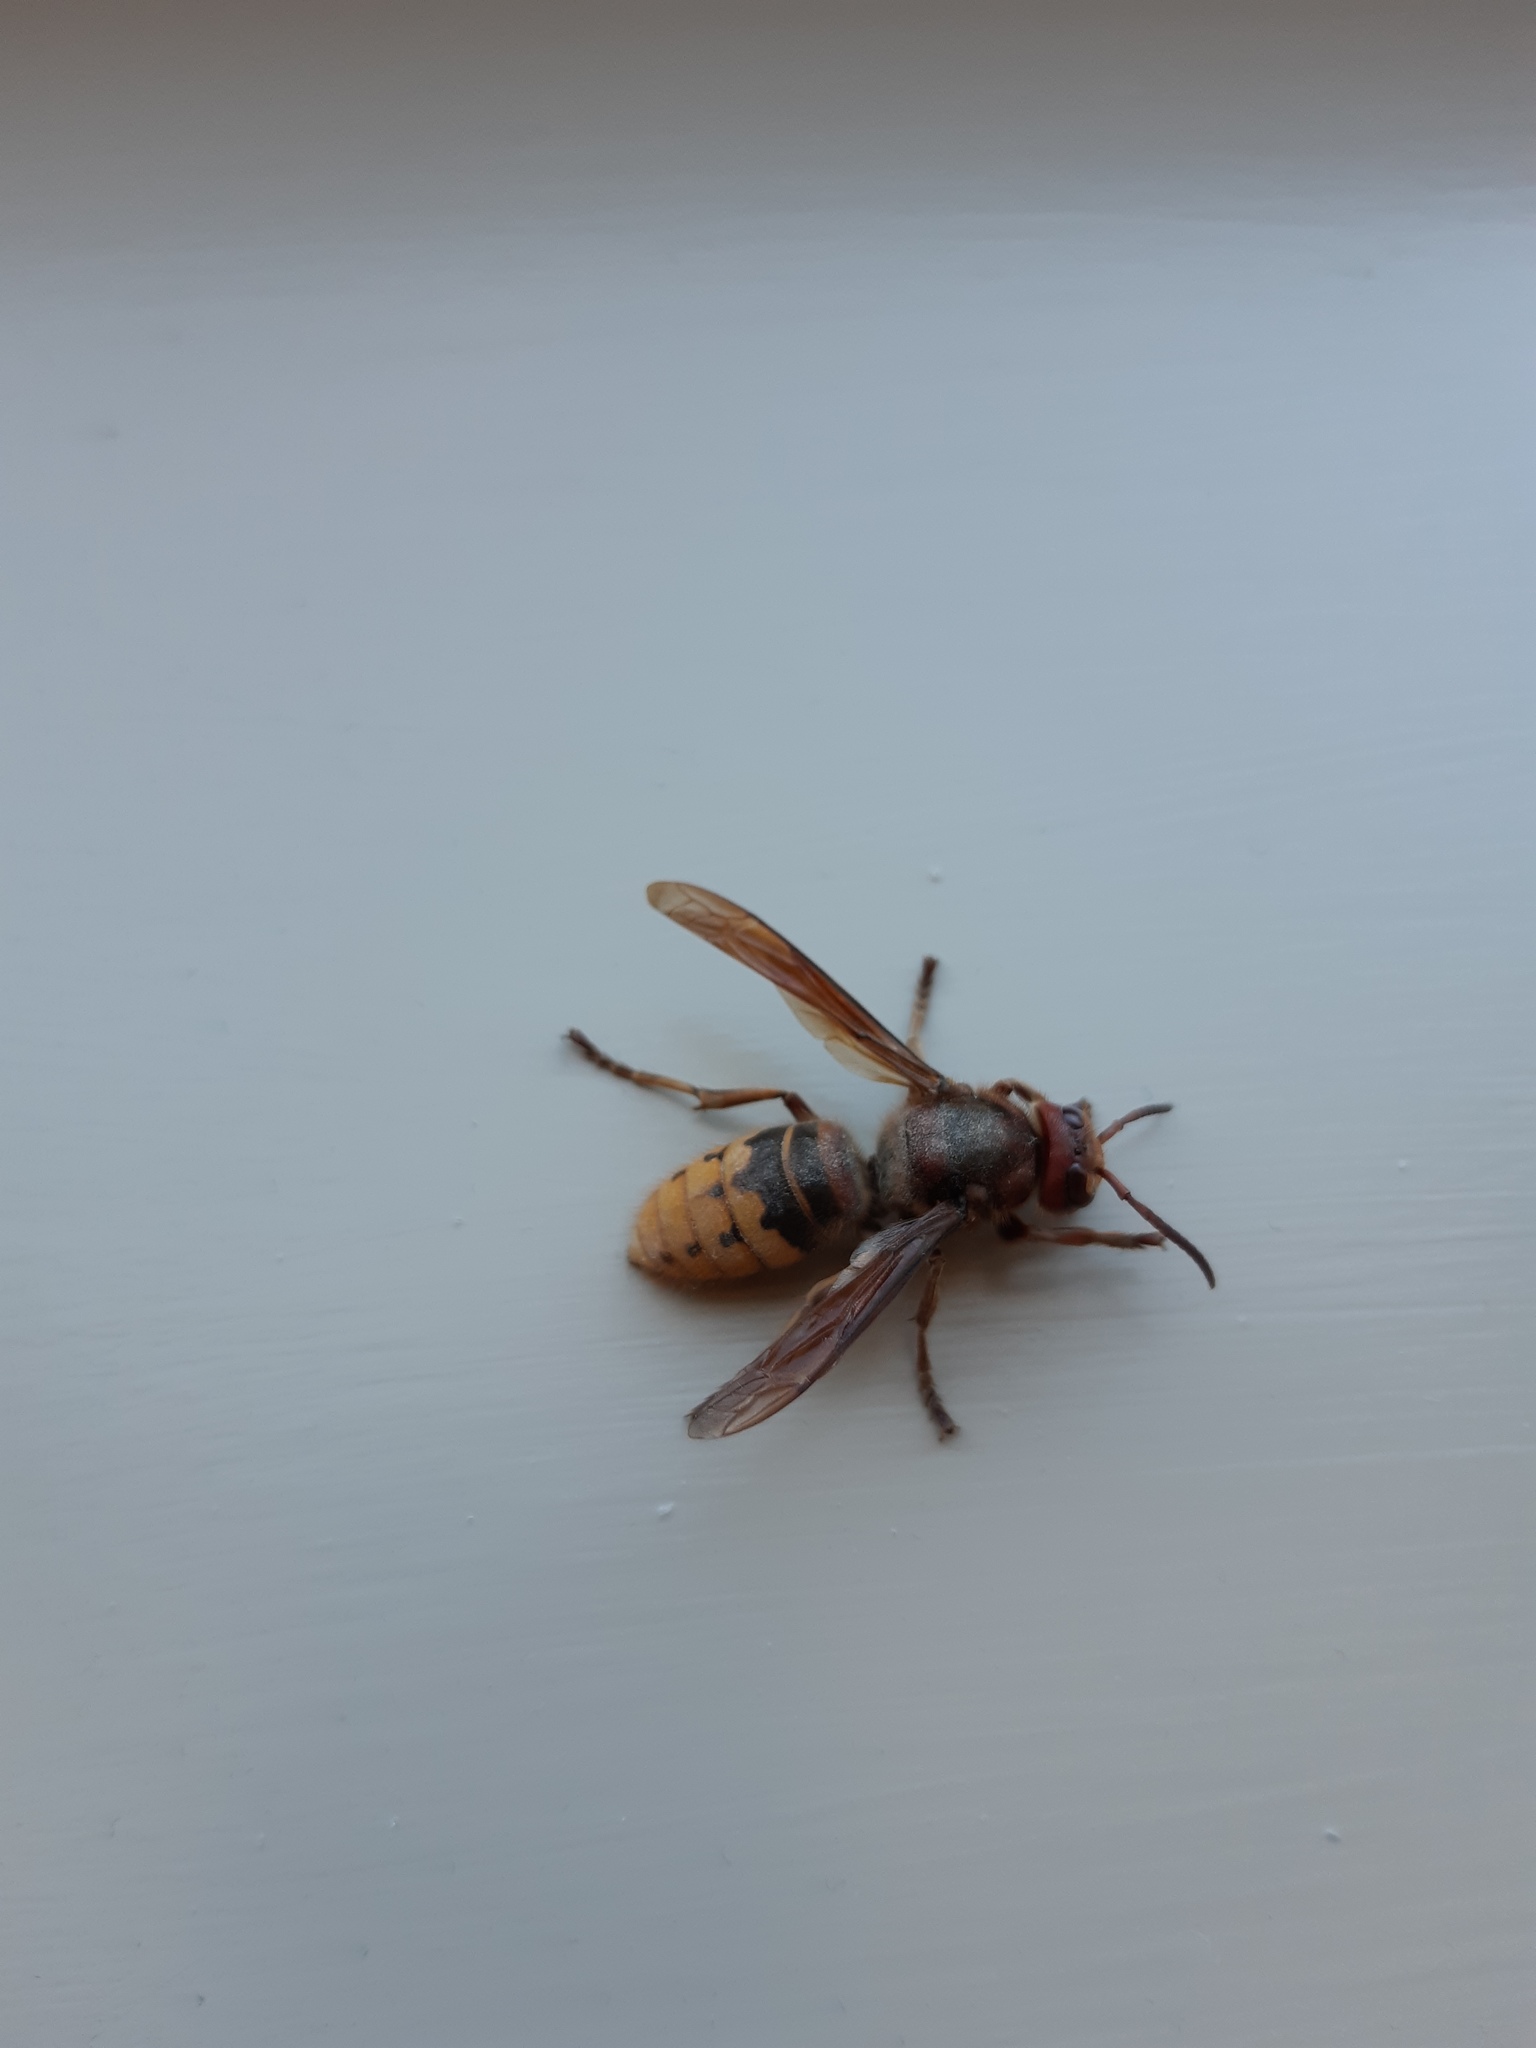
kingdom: Animalia
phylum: Arthropoda
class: Insecta
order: Hymenoptera
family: Vespidae
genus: Vespa
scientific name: Vespa crabro
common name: Hornet
